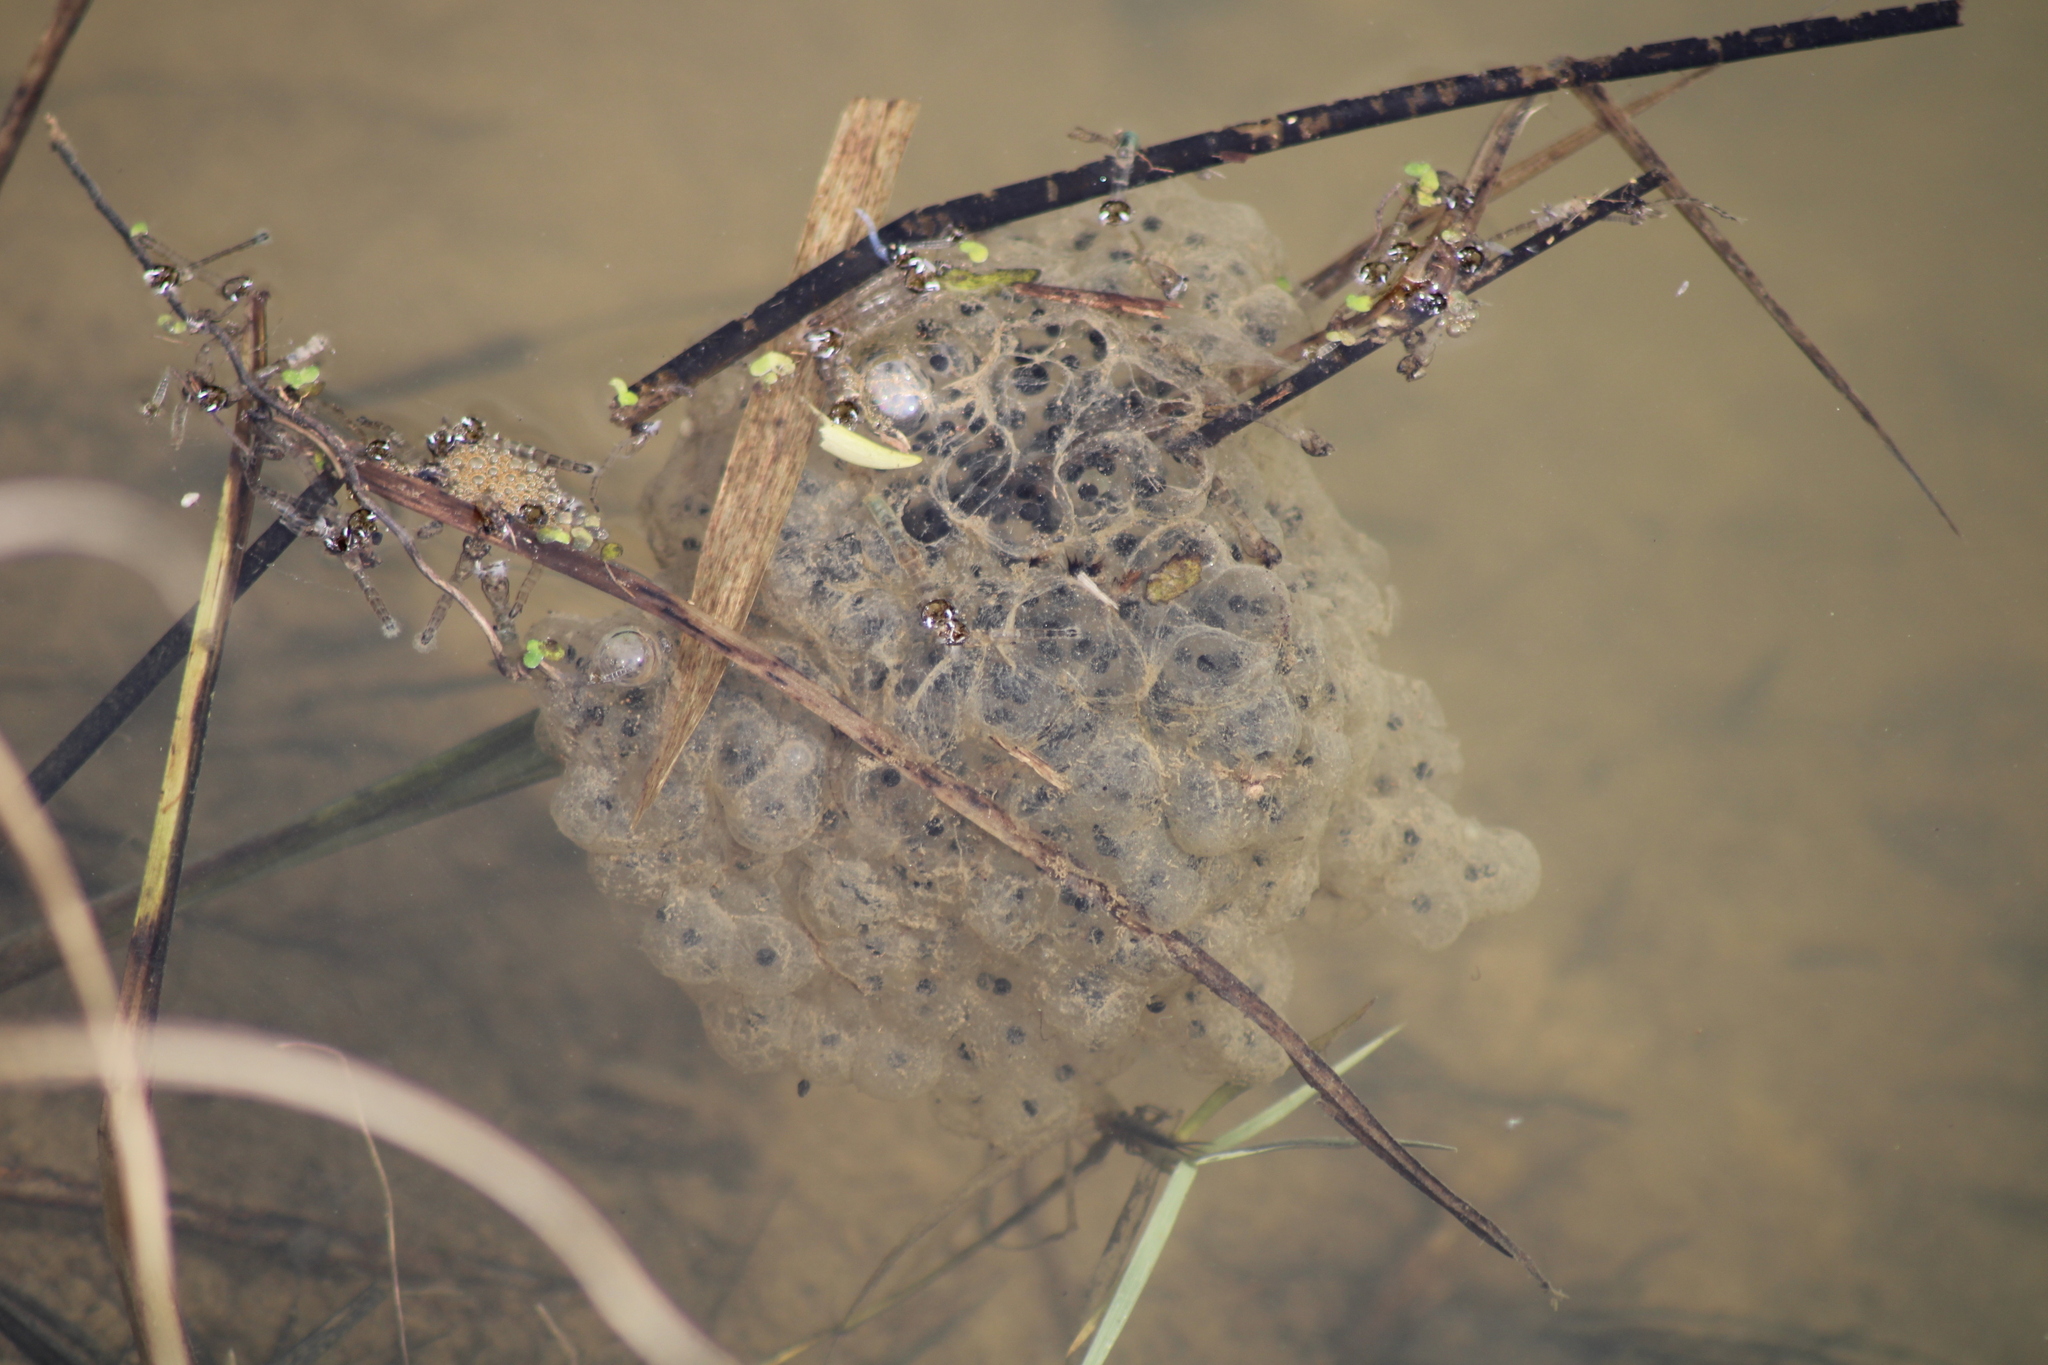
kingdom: Animalia
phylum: Chordata
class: Amphibia
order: Anura
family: Ranidae
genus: Rana
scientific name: Rana dalmatina
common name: Agile frog
